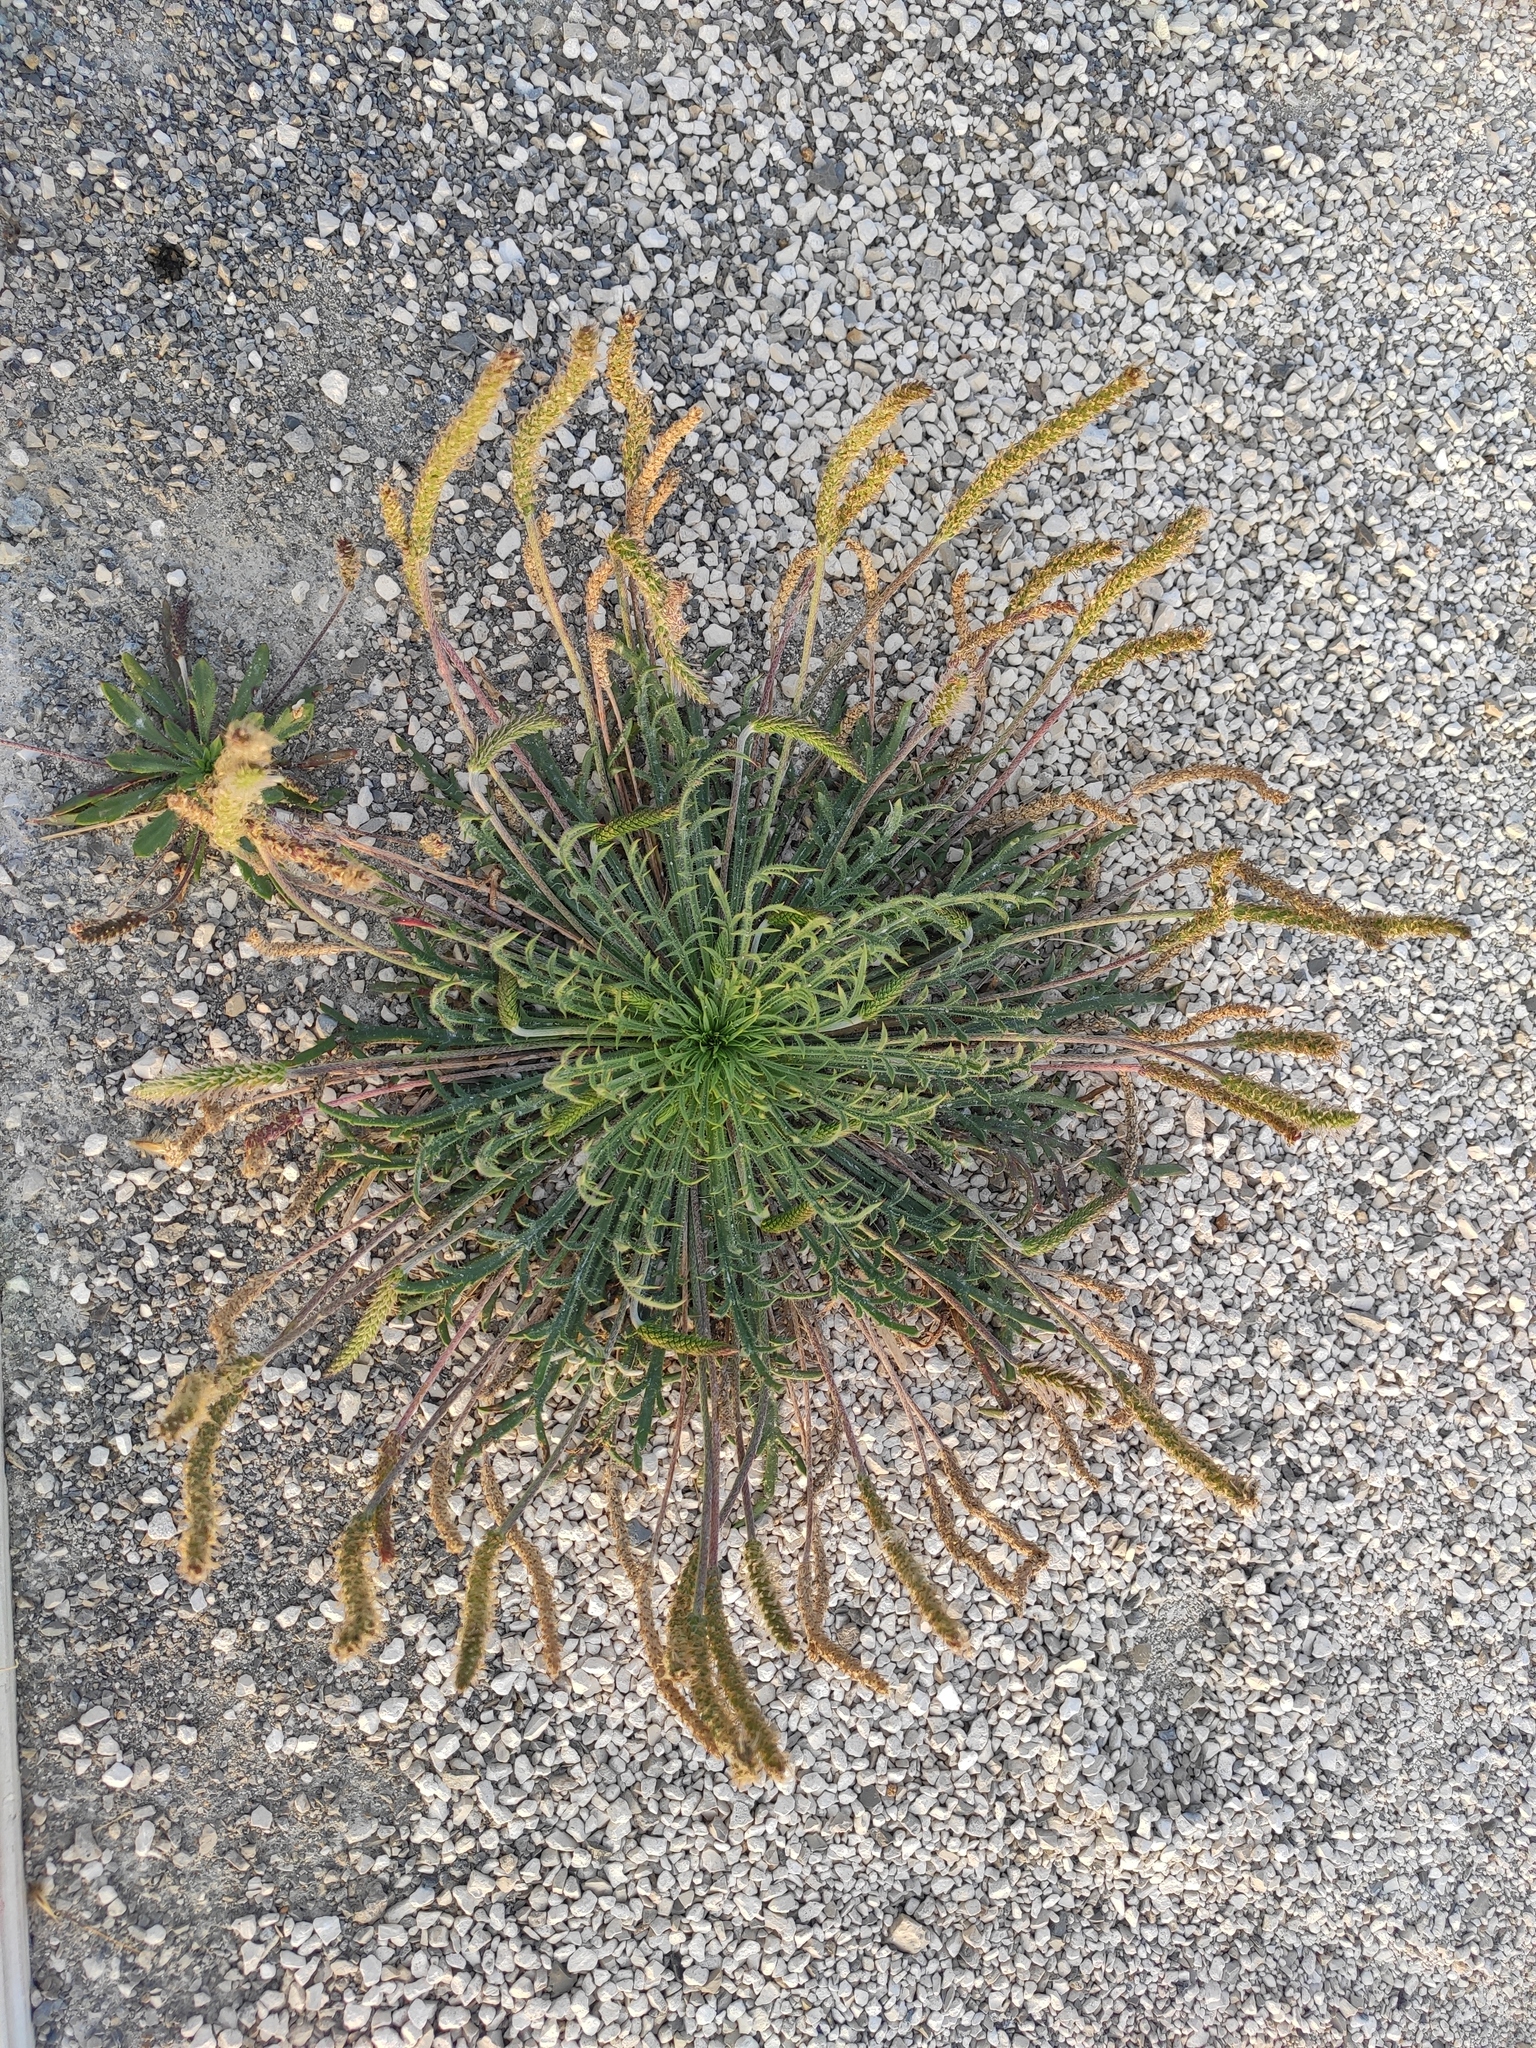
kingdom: Plantae
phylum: Tracheophyta
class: Magnoliopsida
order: Lamiales
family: Plantaginaceae
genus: Plantago
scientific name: Plantago coronopus
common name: Buck's-horn plantain
